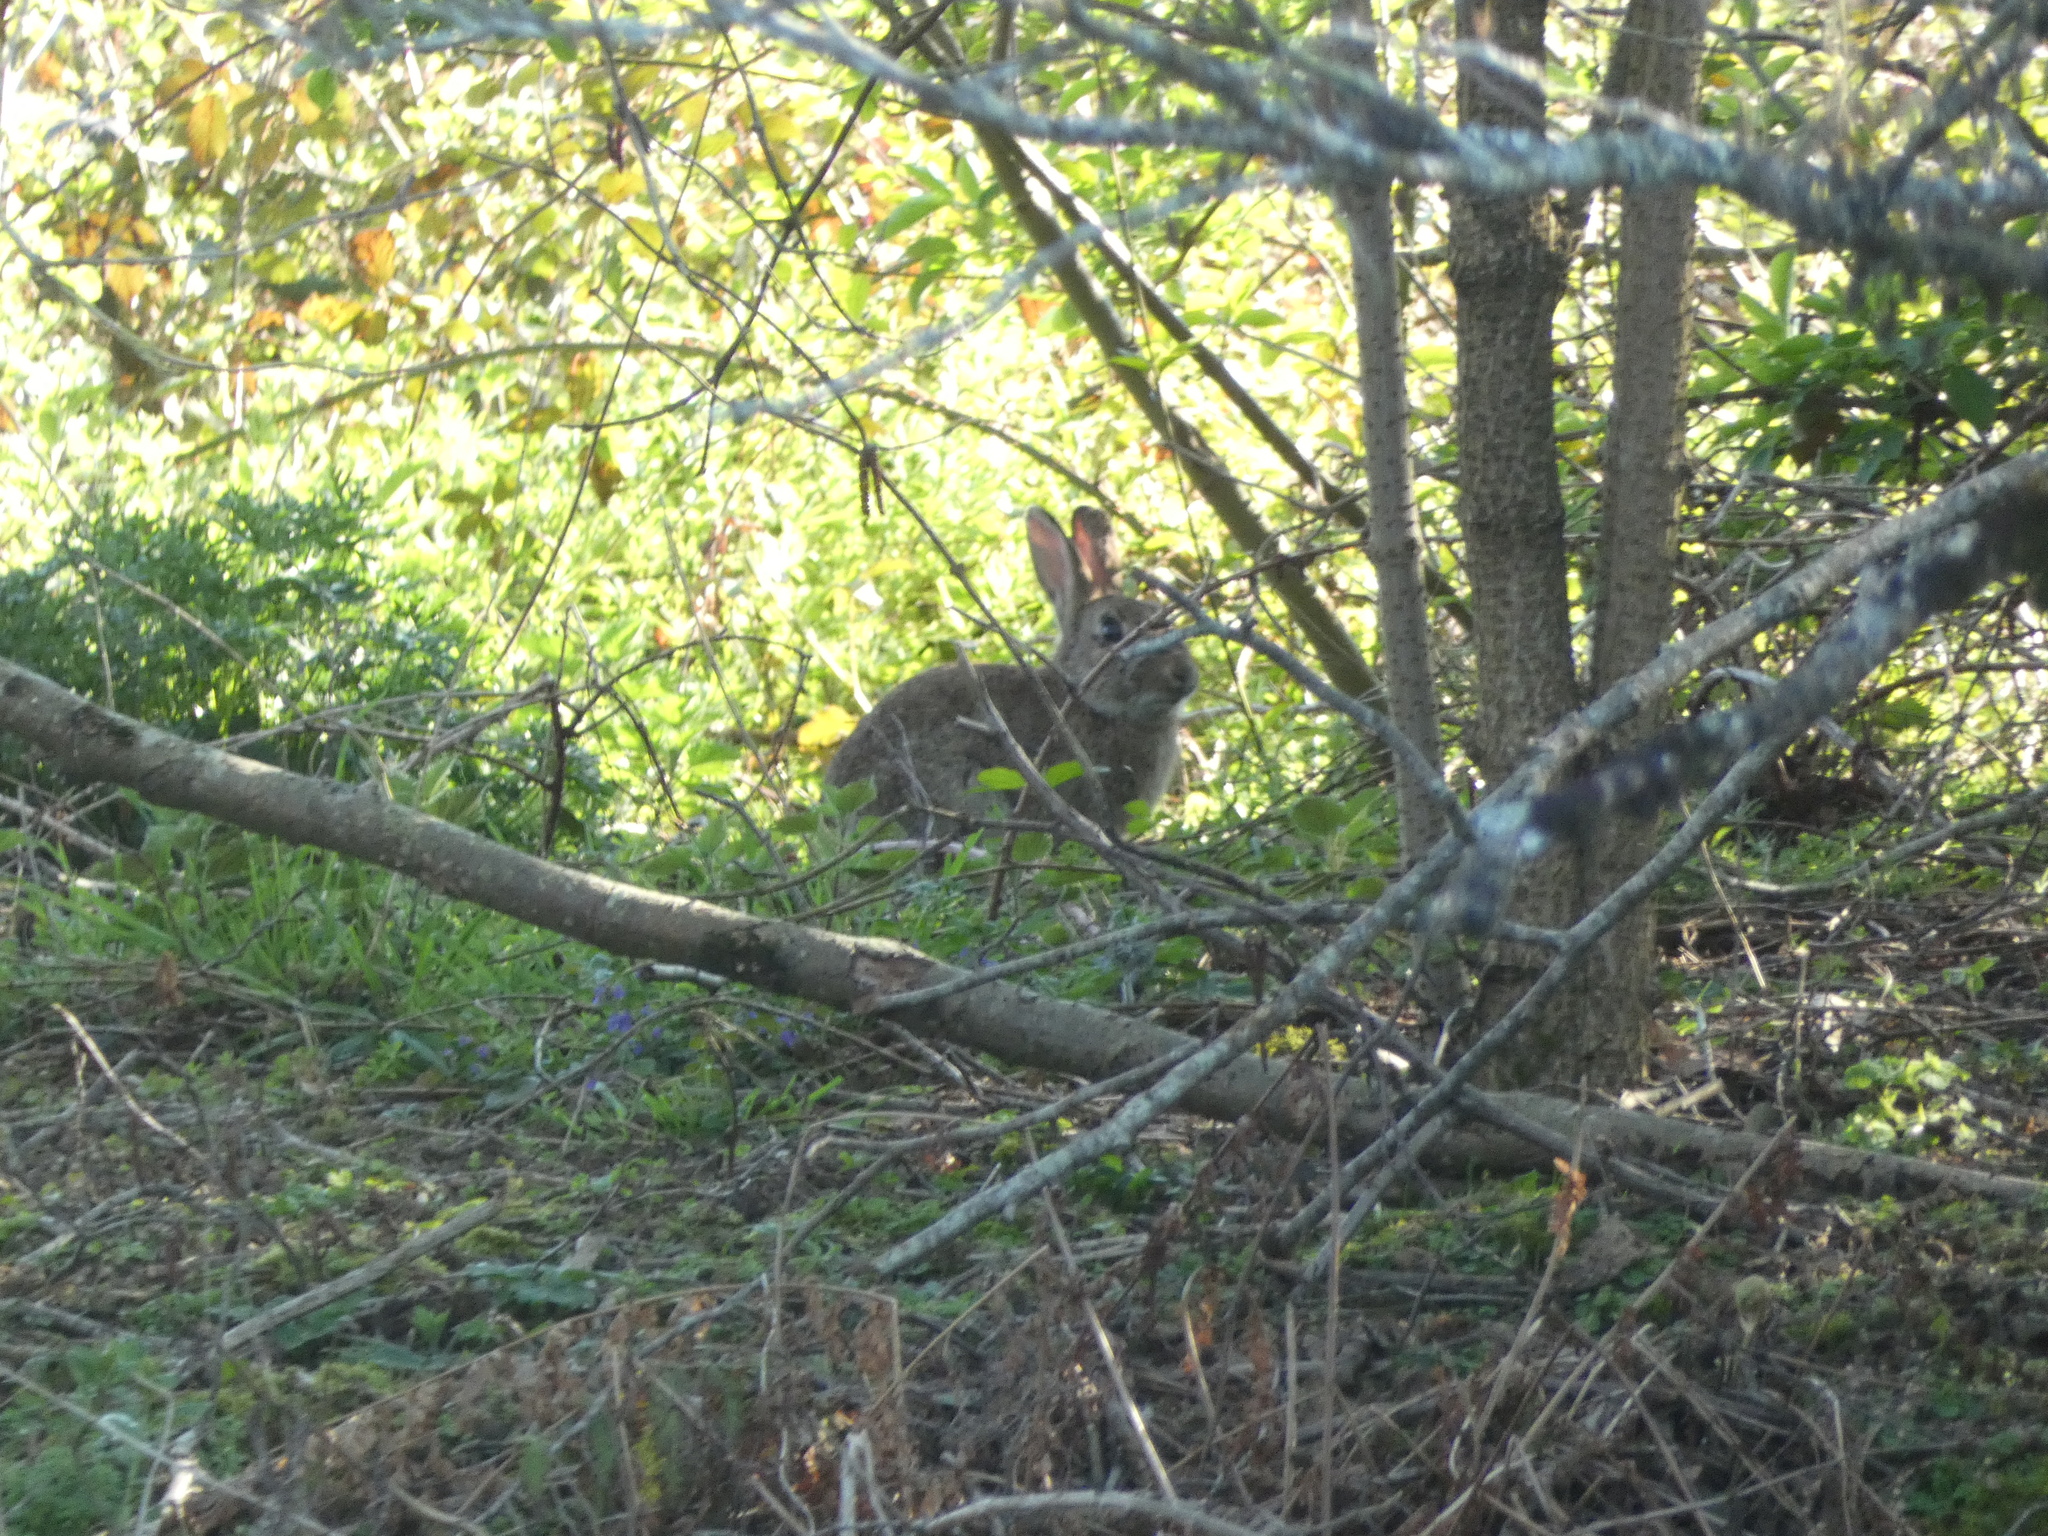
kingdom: Animalia
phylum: Chordata
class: Mammalia
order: Lagomorpha
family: Leporidae
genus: Oryctolagus
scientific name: Oryctolagus cuniculus
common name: European rabbit
